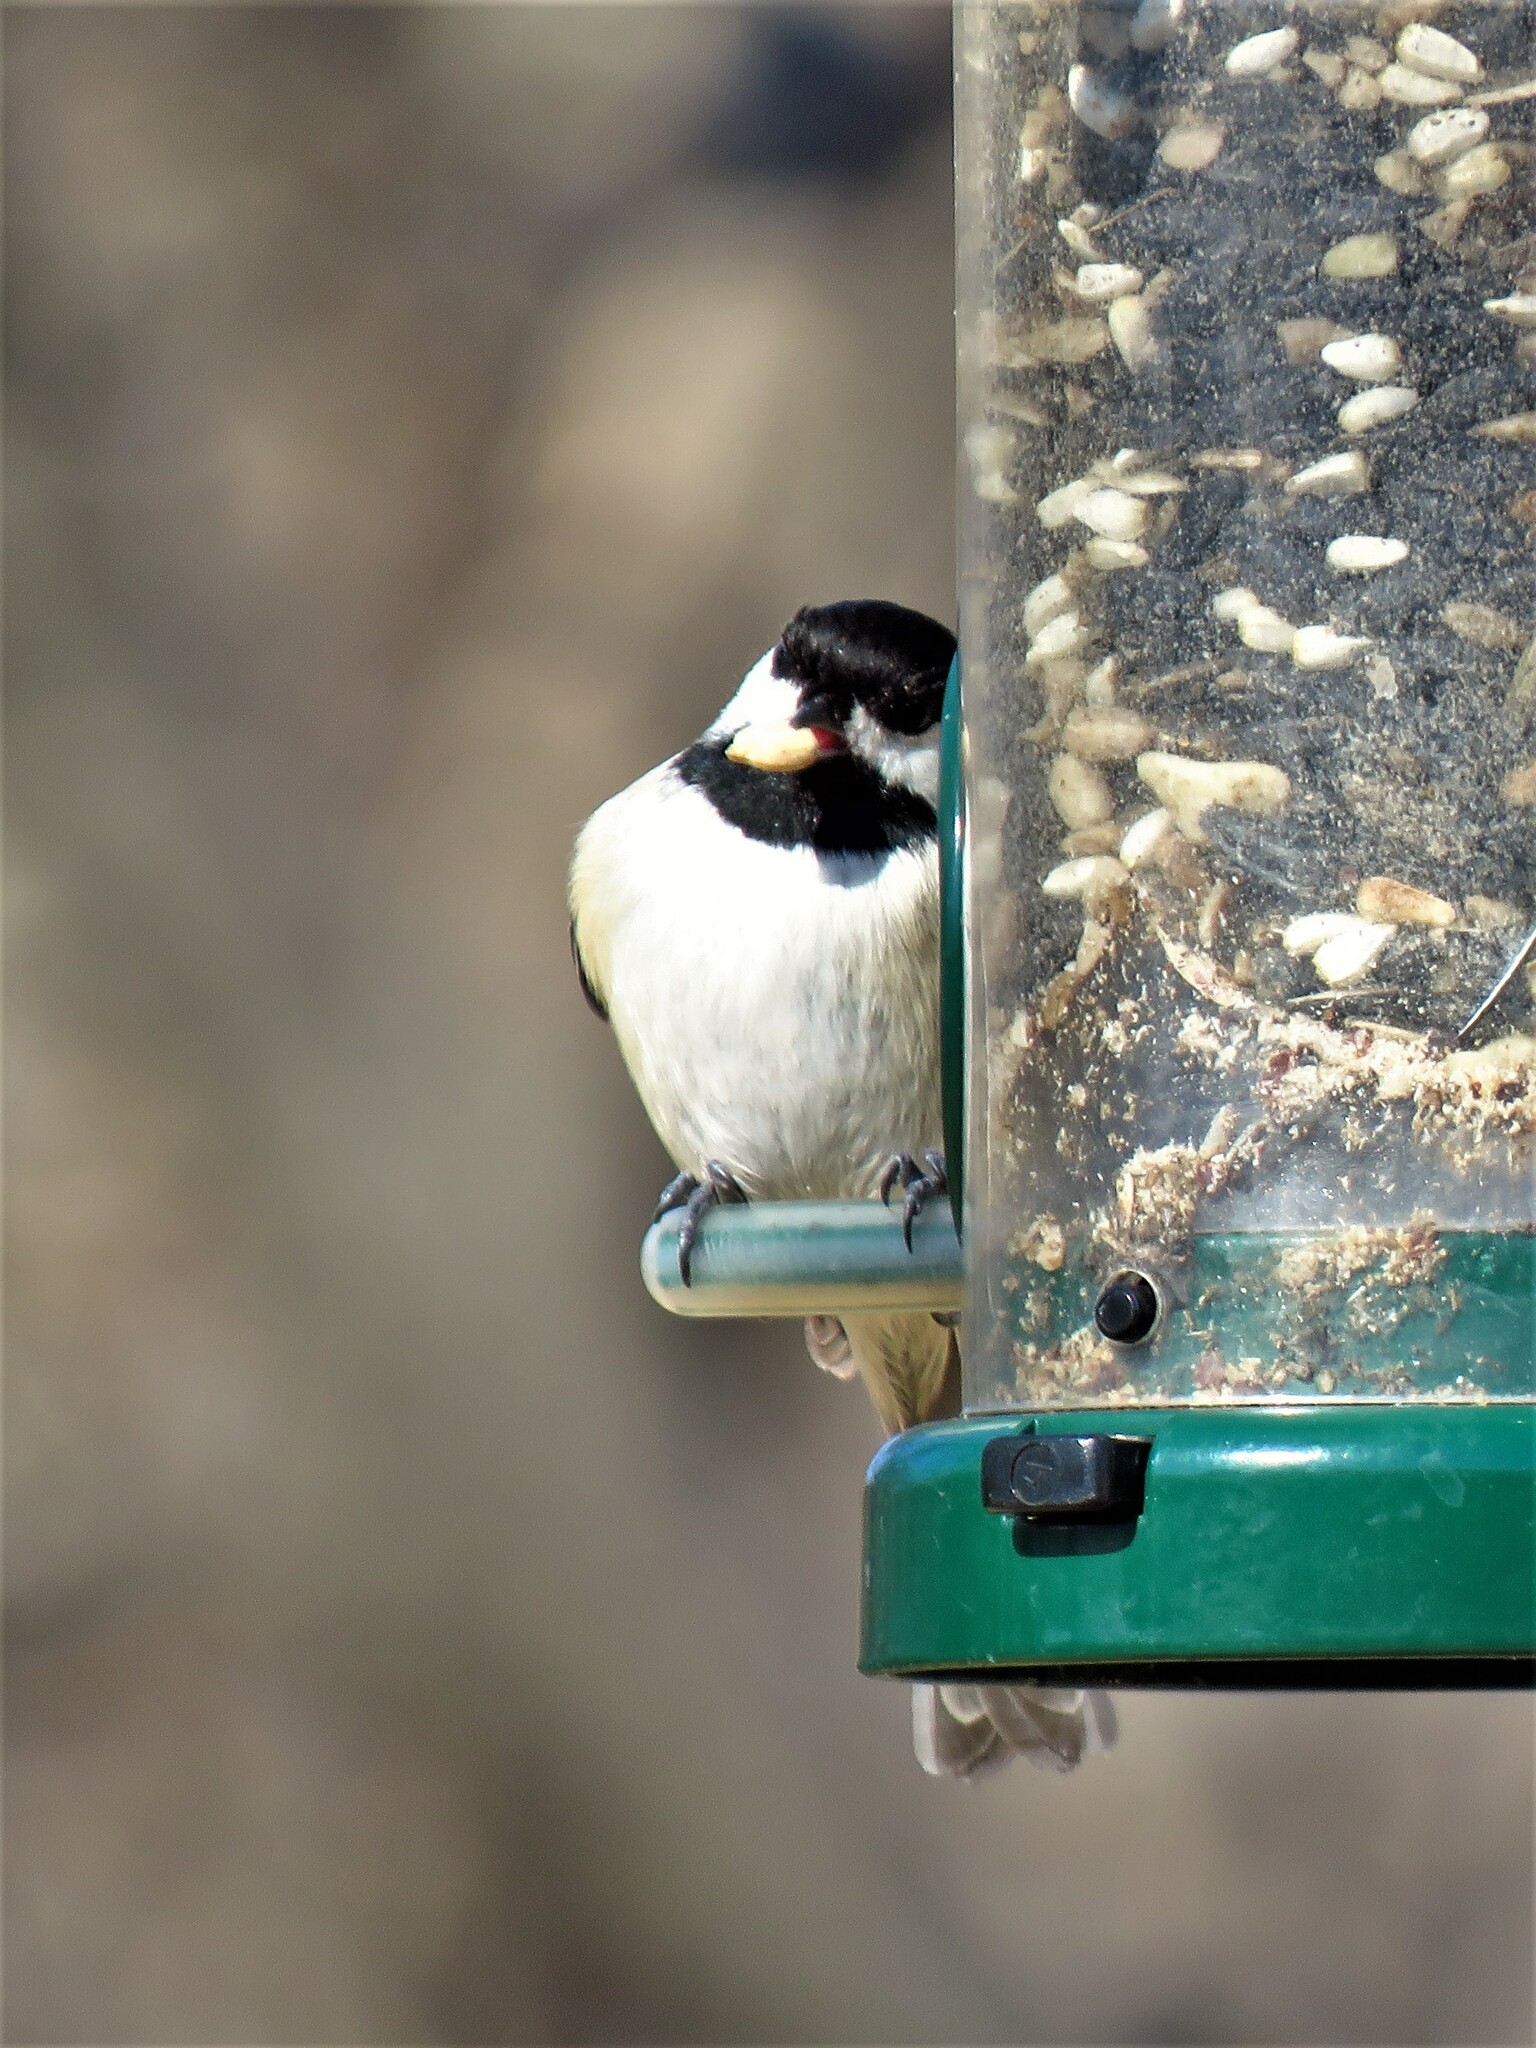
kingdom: Animalia
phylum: Chordata
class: Aves
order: Passeriformes
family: Paridae
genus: Poecile
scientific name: Poecile carolinensis
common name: Carolina chickadee
